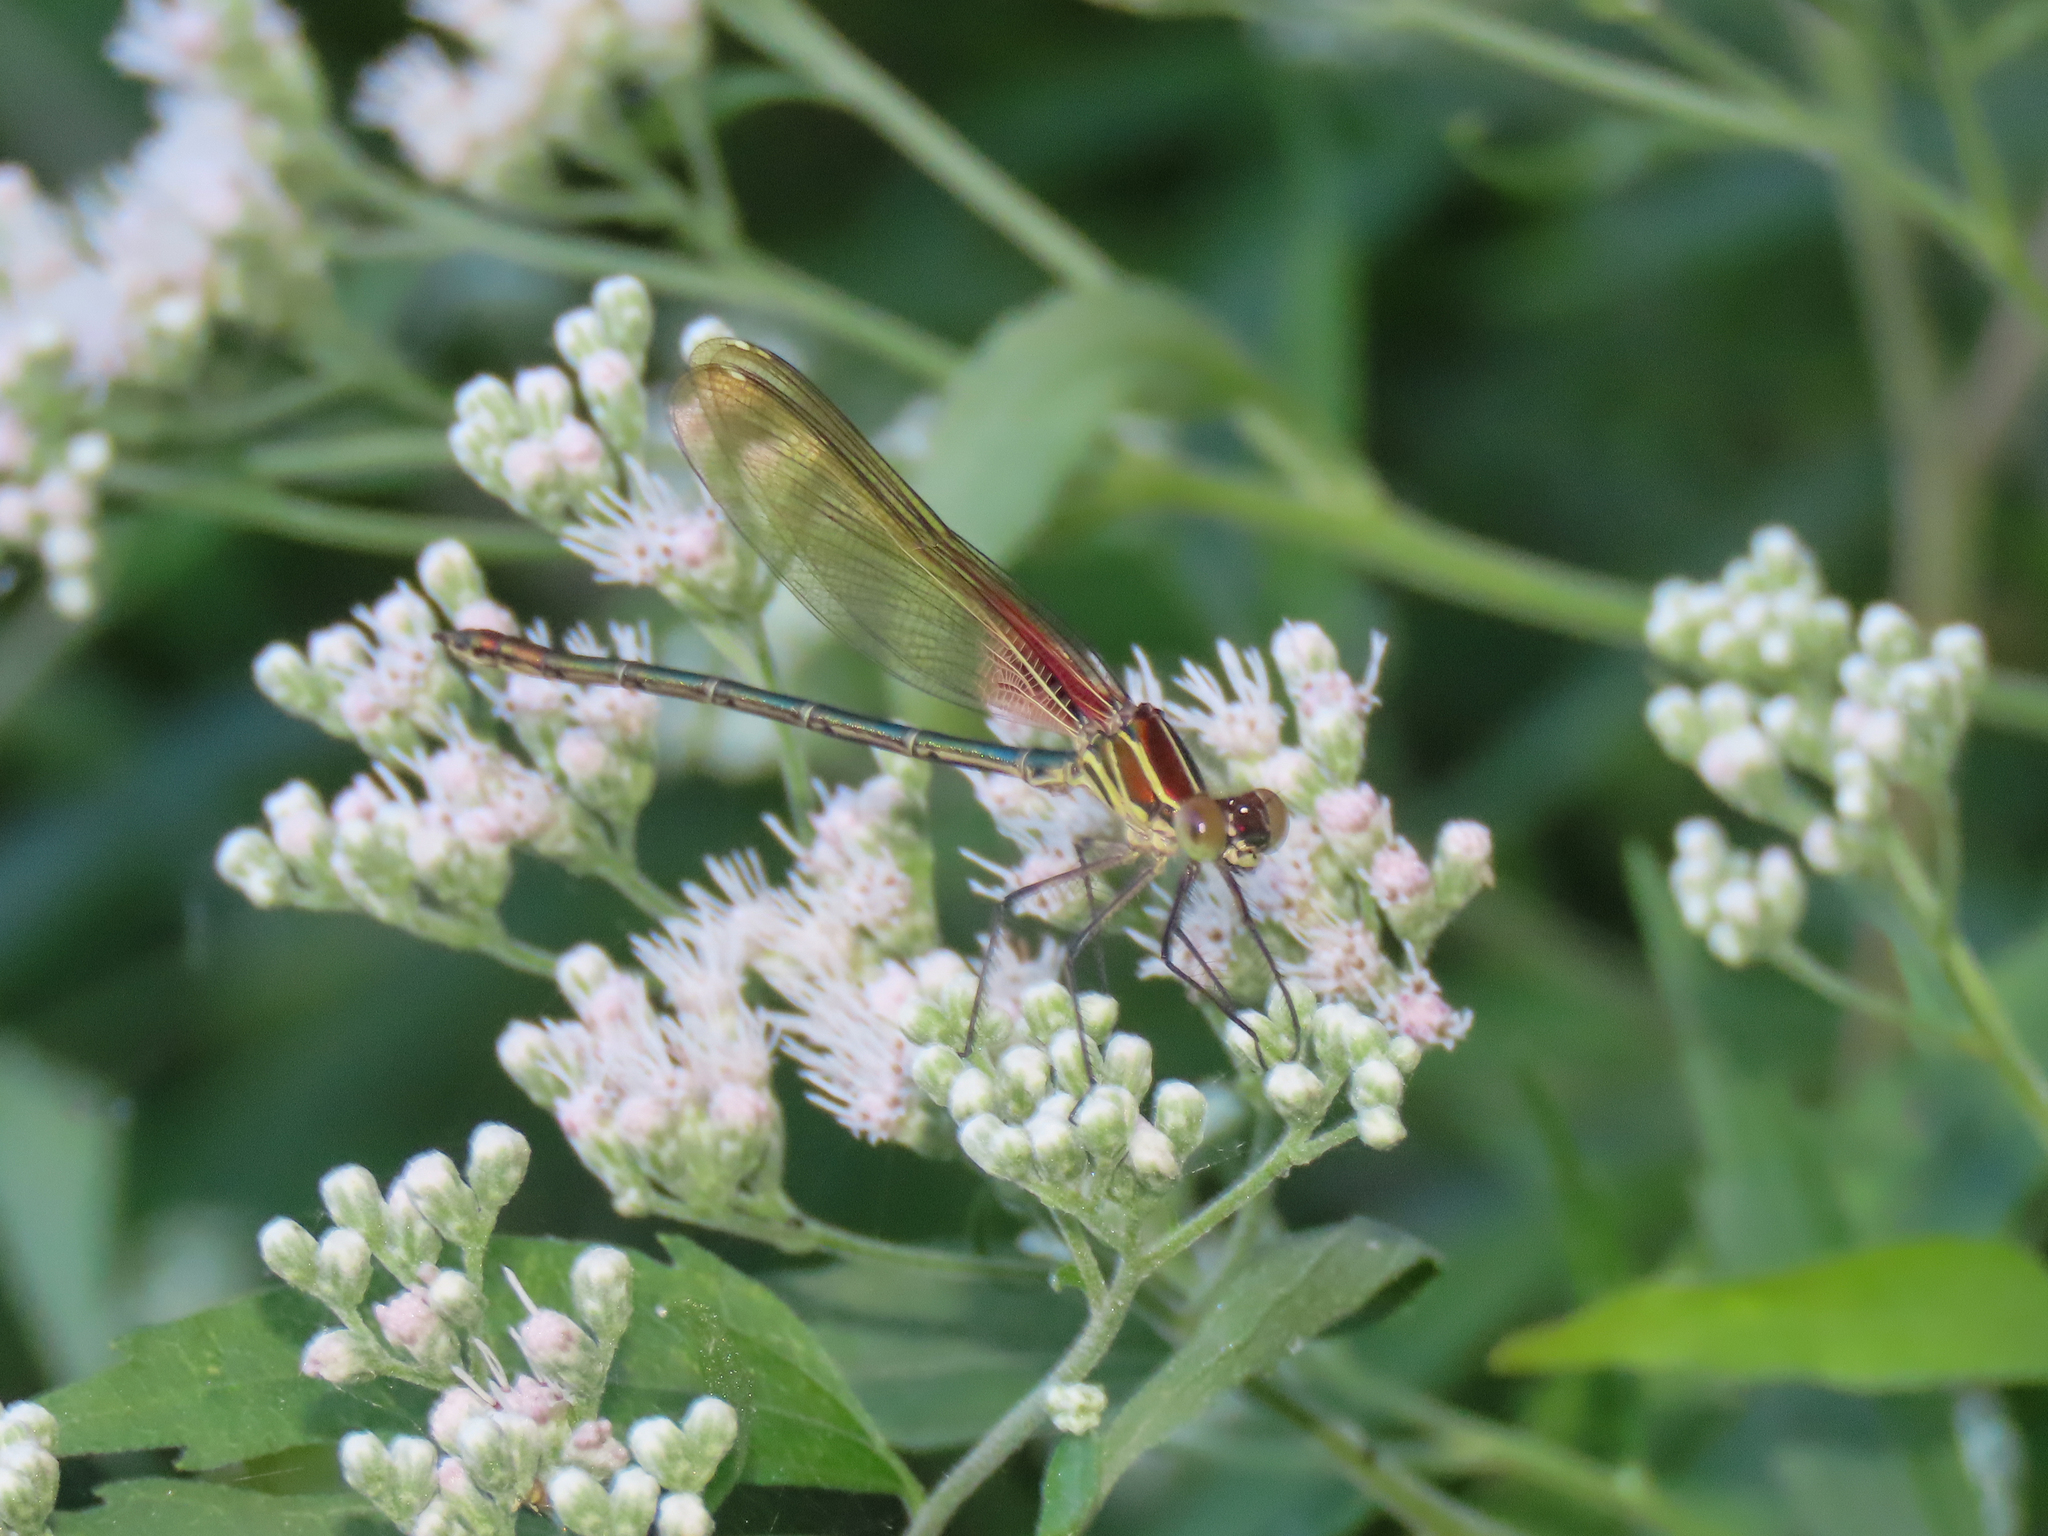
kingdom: Animalia
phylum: Arthropoda
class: Insecta
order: Odonata
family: Calopterygidae
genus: Hetaerina
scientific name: Hetaerina americana
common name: American rubyspot
